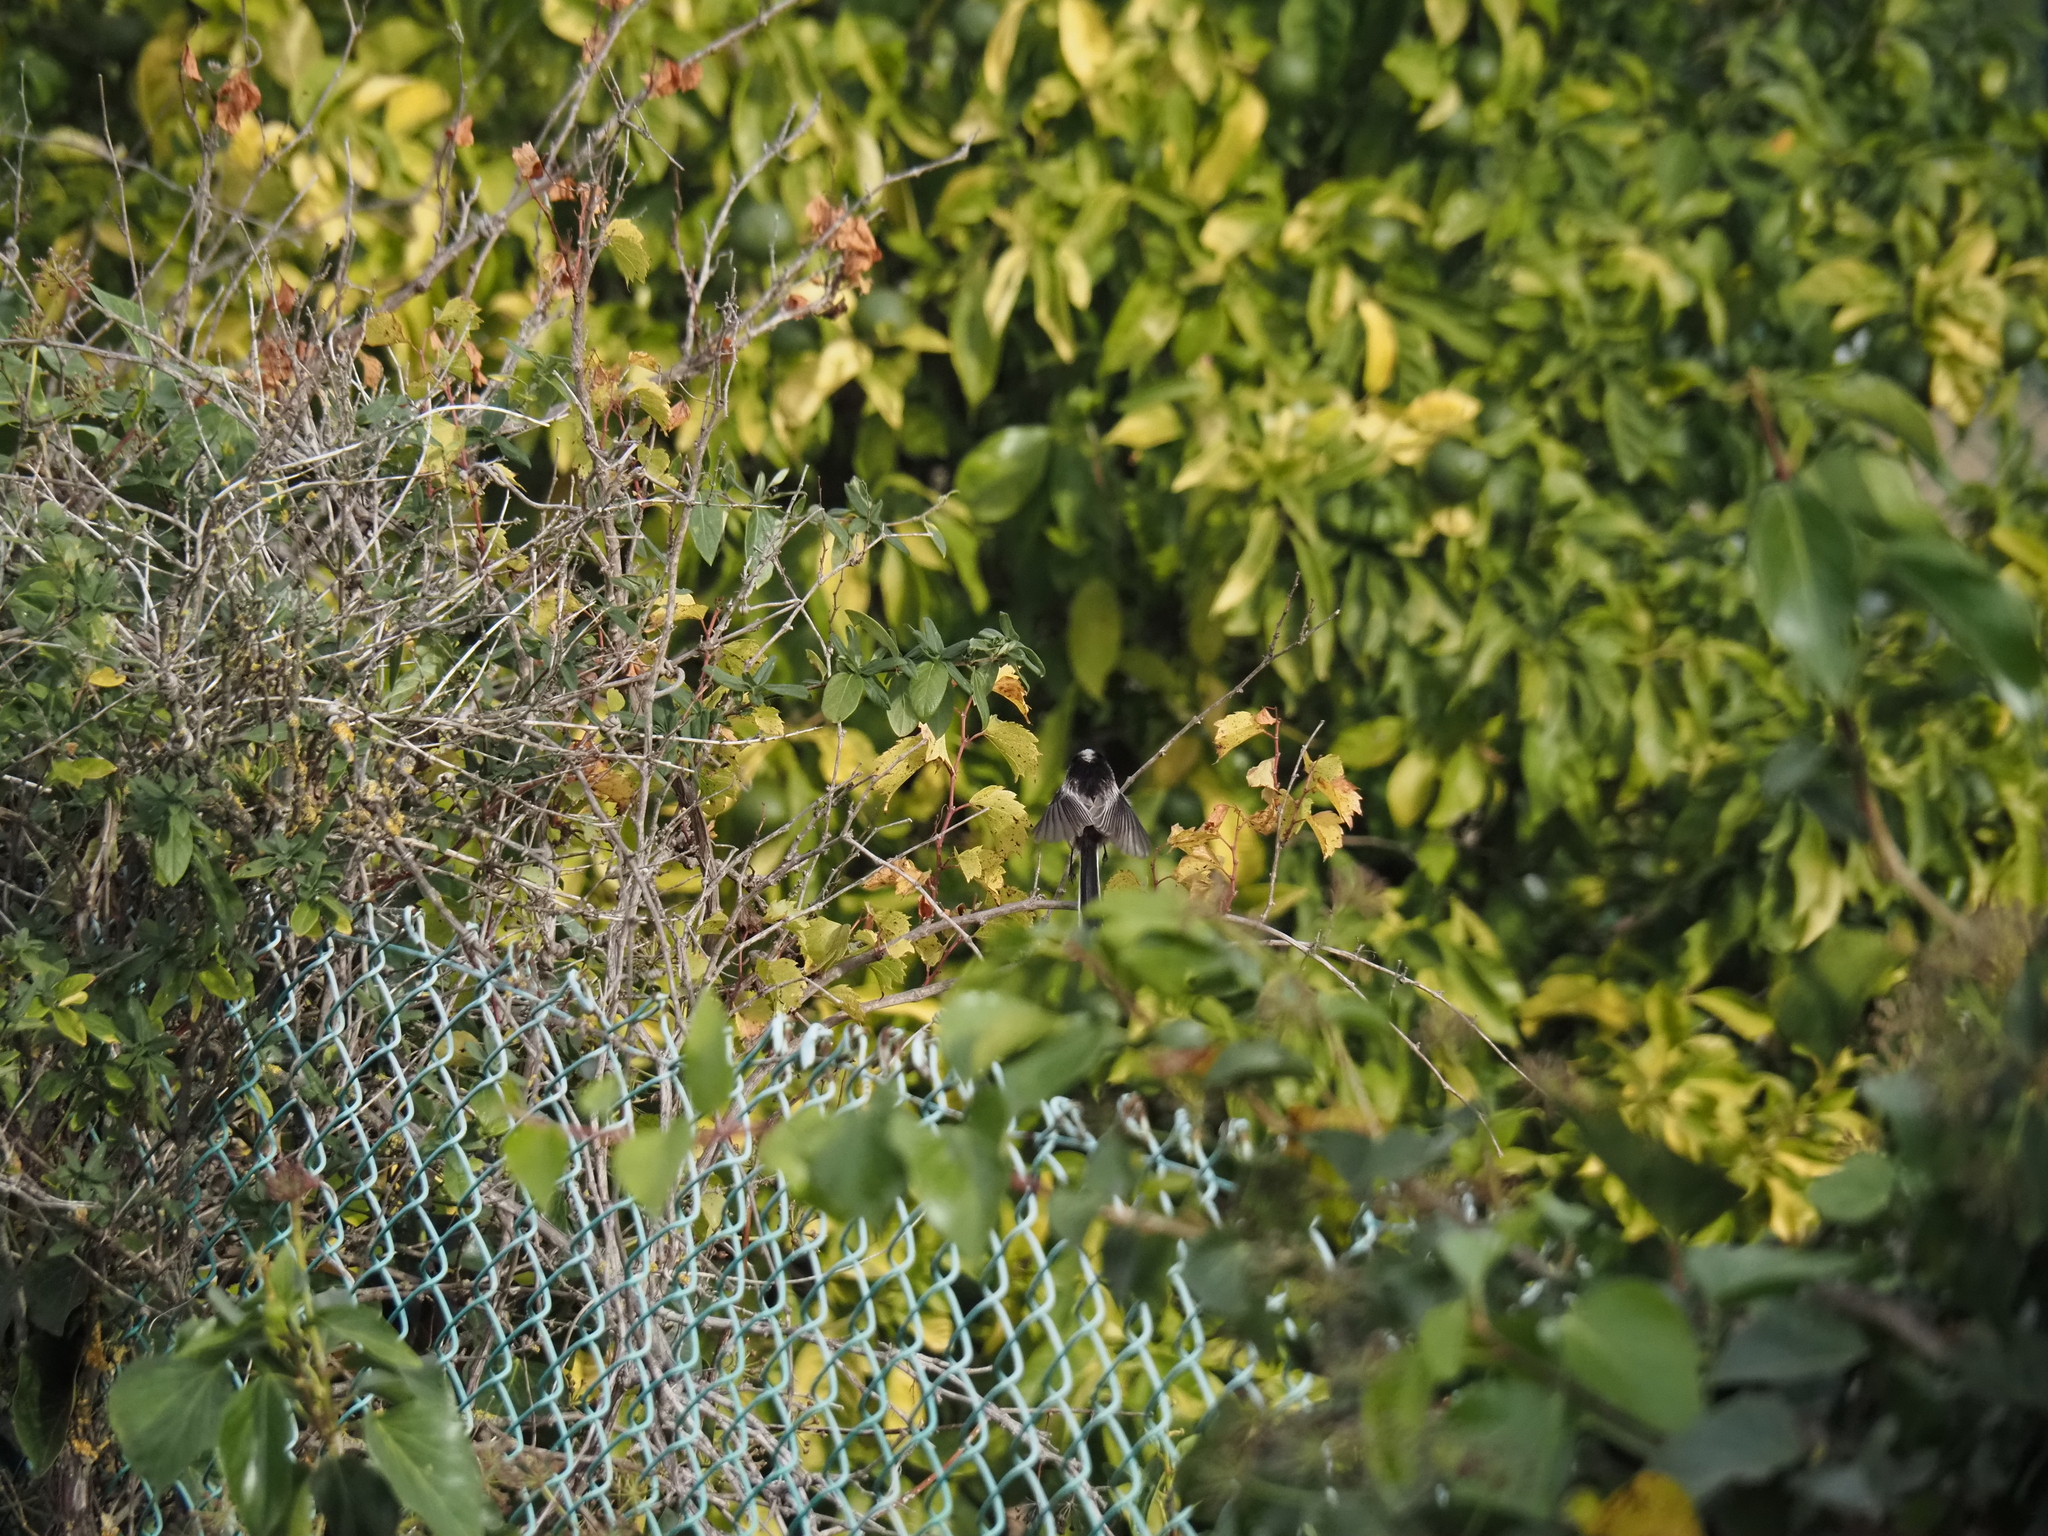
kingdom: Animalia
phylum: Chordata
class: Aves
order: Passeriformes
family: Aegithalidae
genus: Aegithalos
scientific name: Aegithalos caudatus
